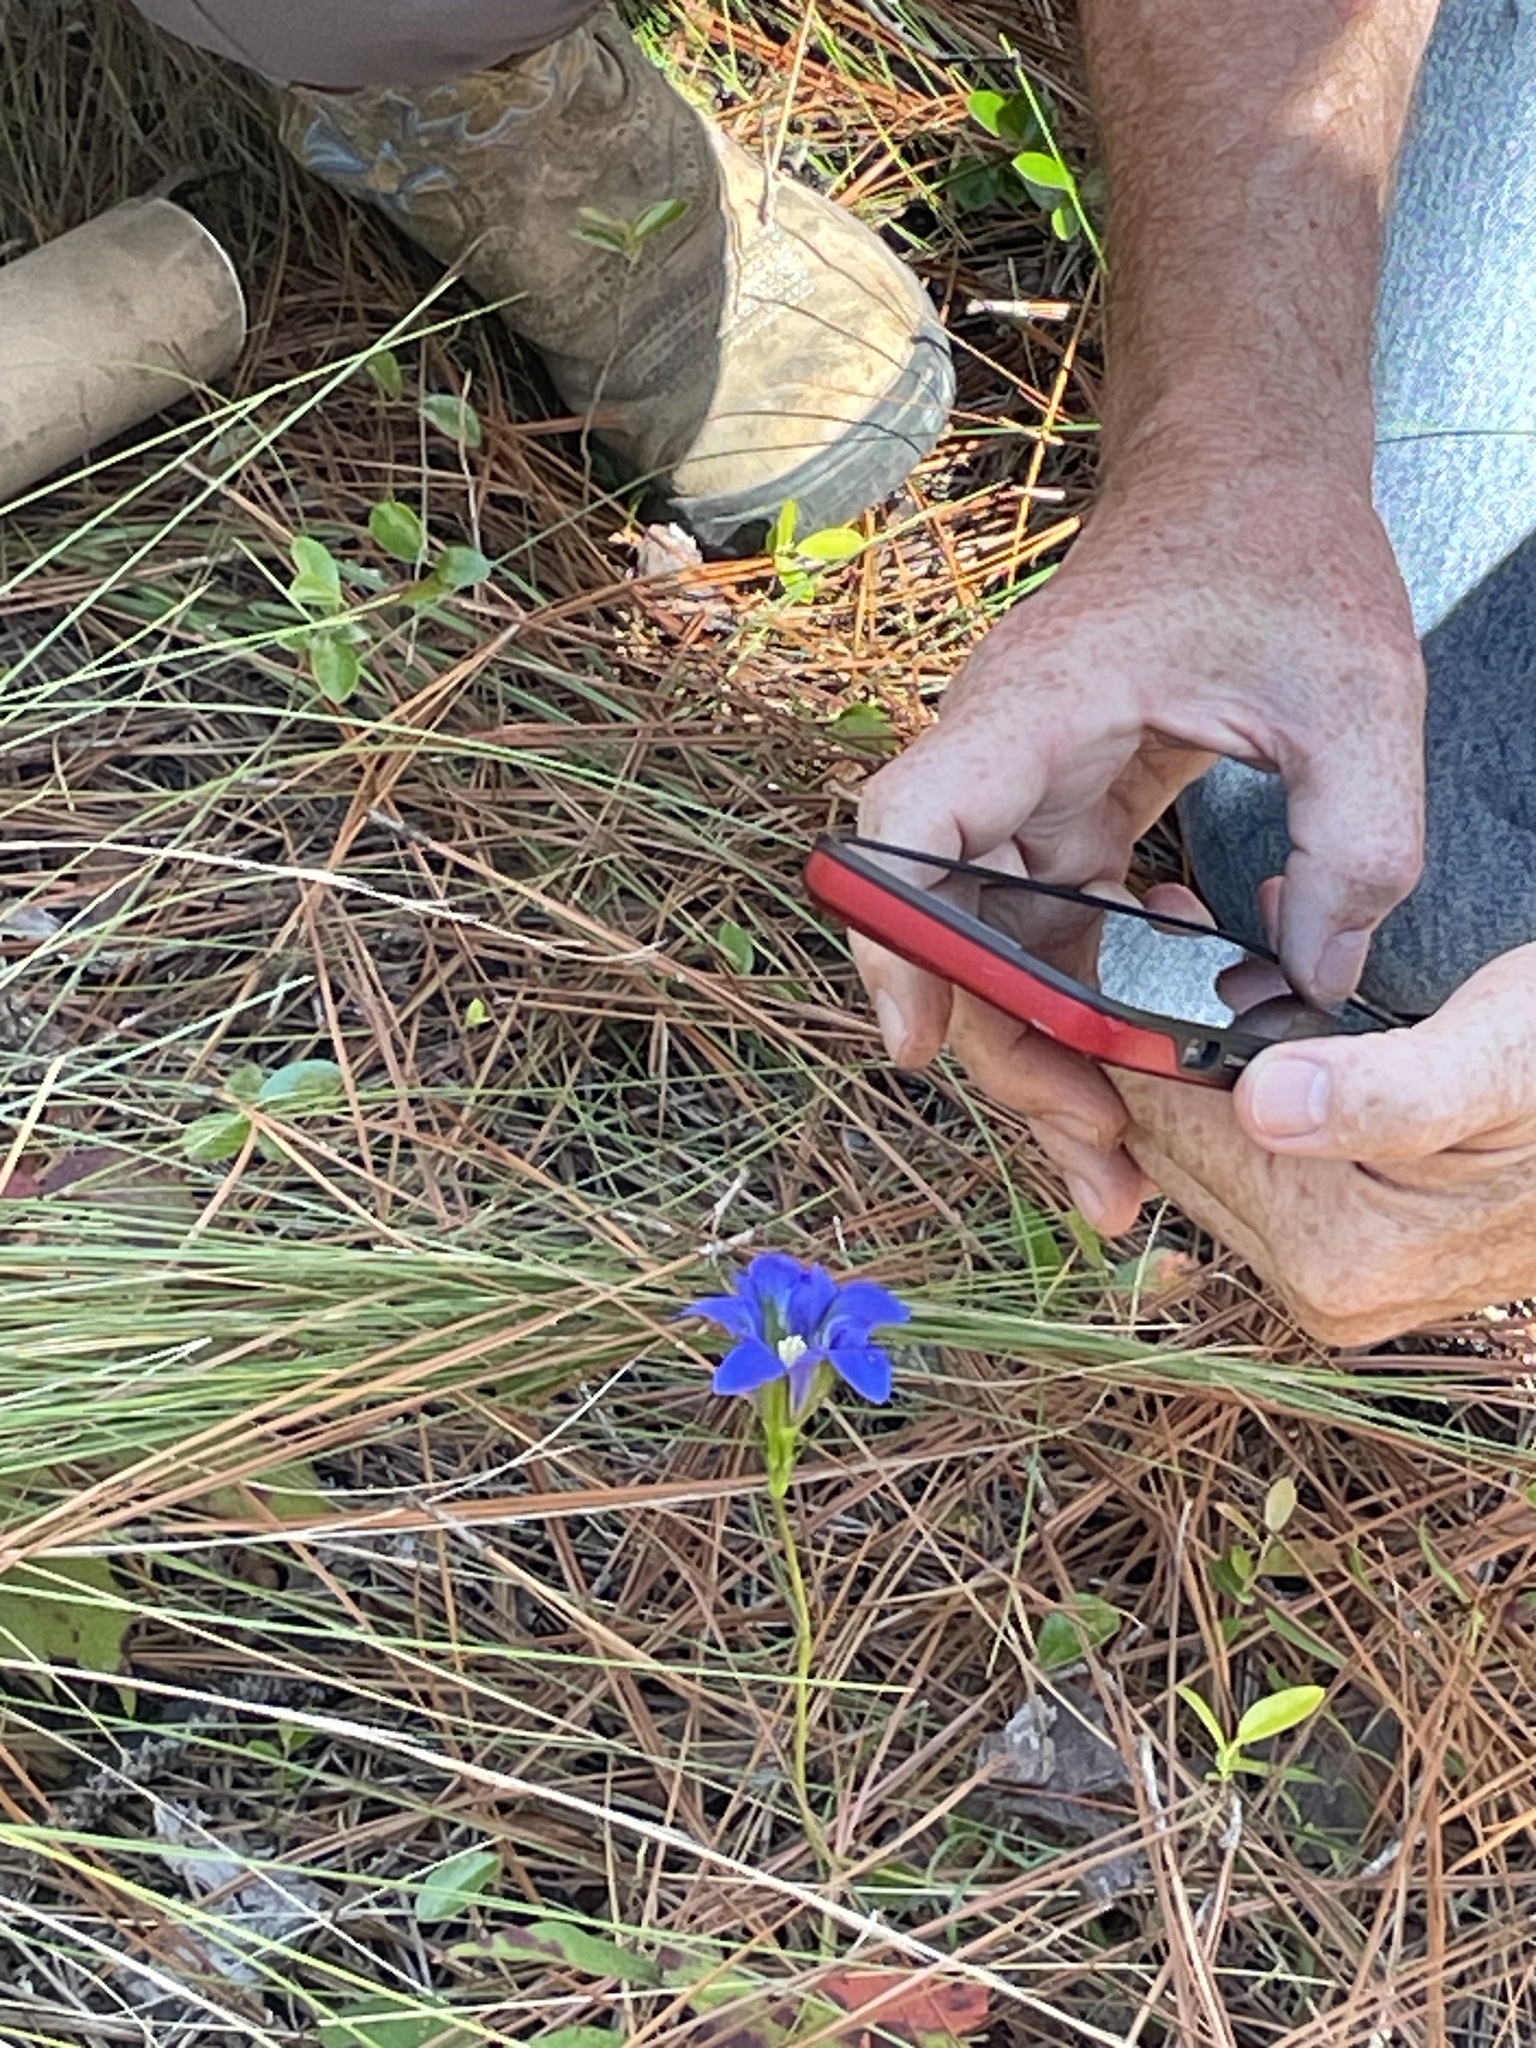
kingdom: Plantae
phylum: Tracheophyta
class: Magnoliopsida
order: Gentianales
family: Gentianaceae
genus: Gentiana
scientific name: Gentiana autumnalis
